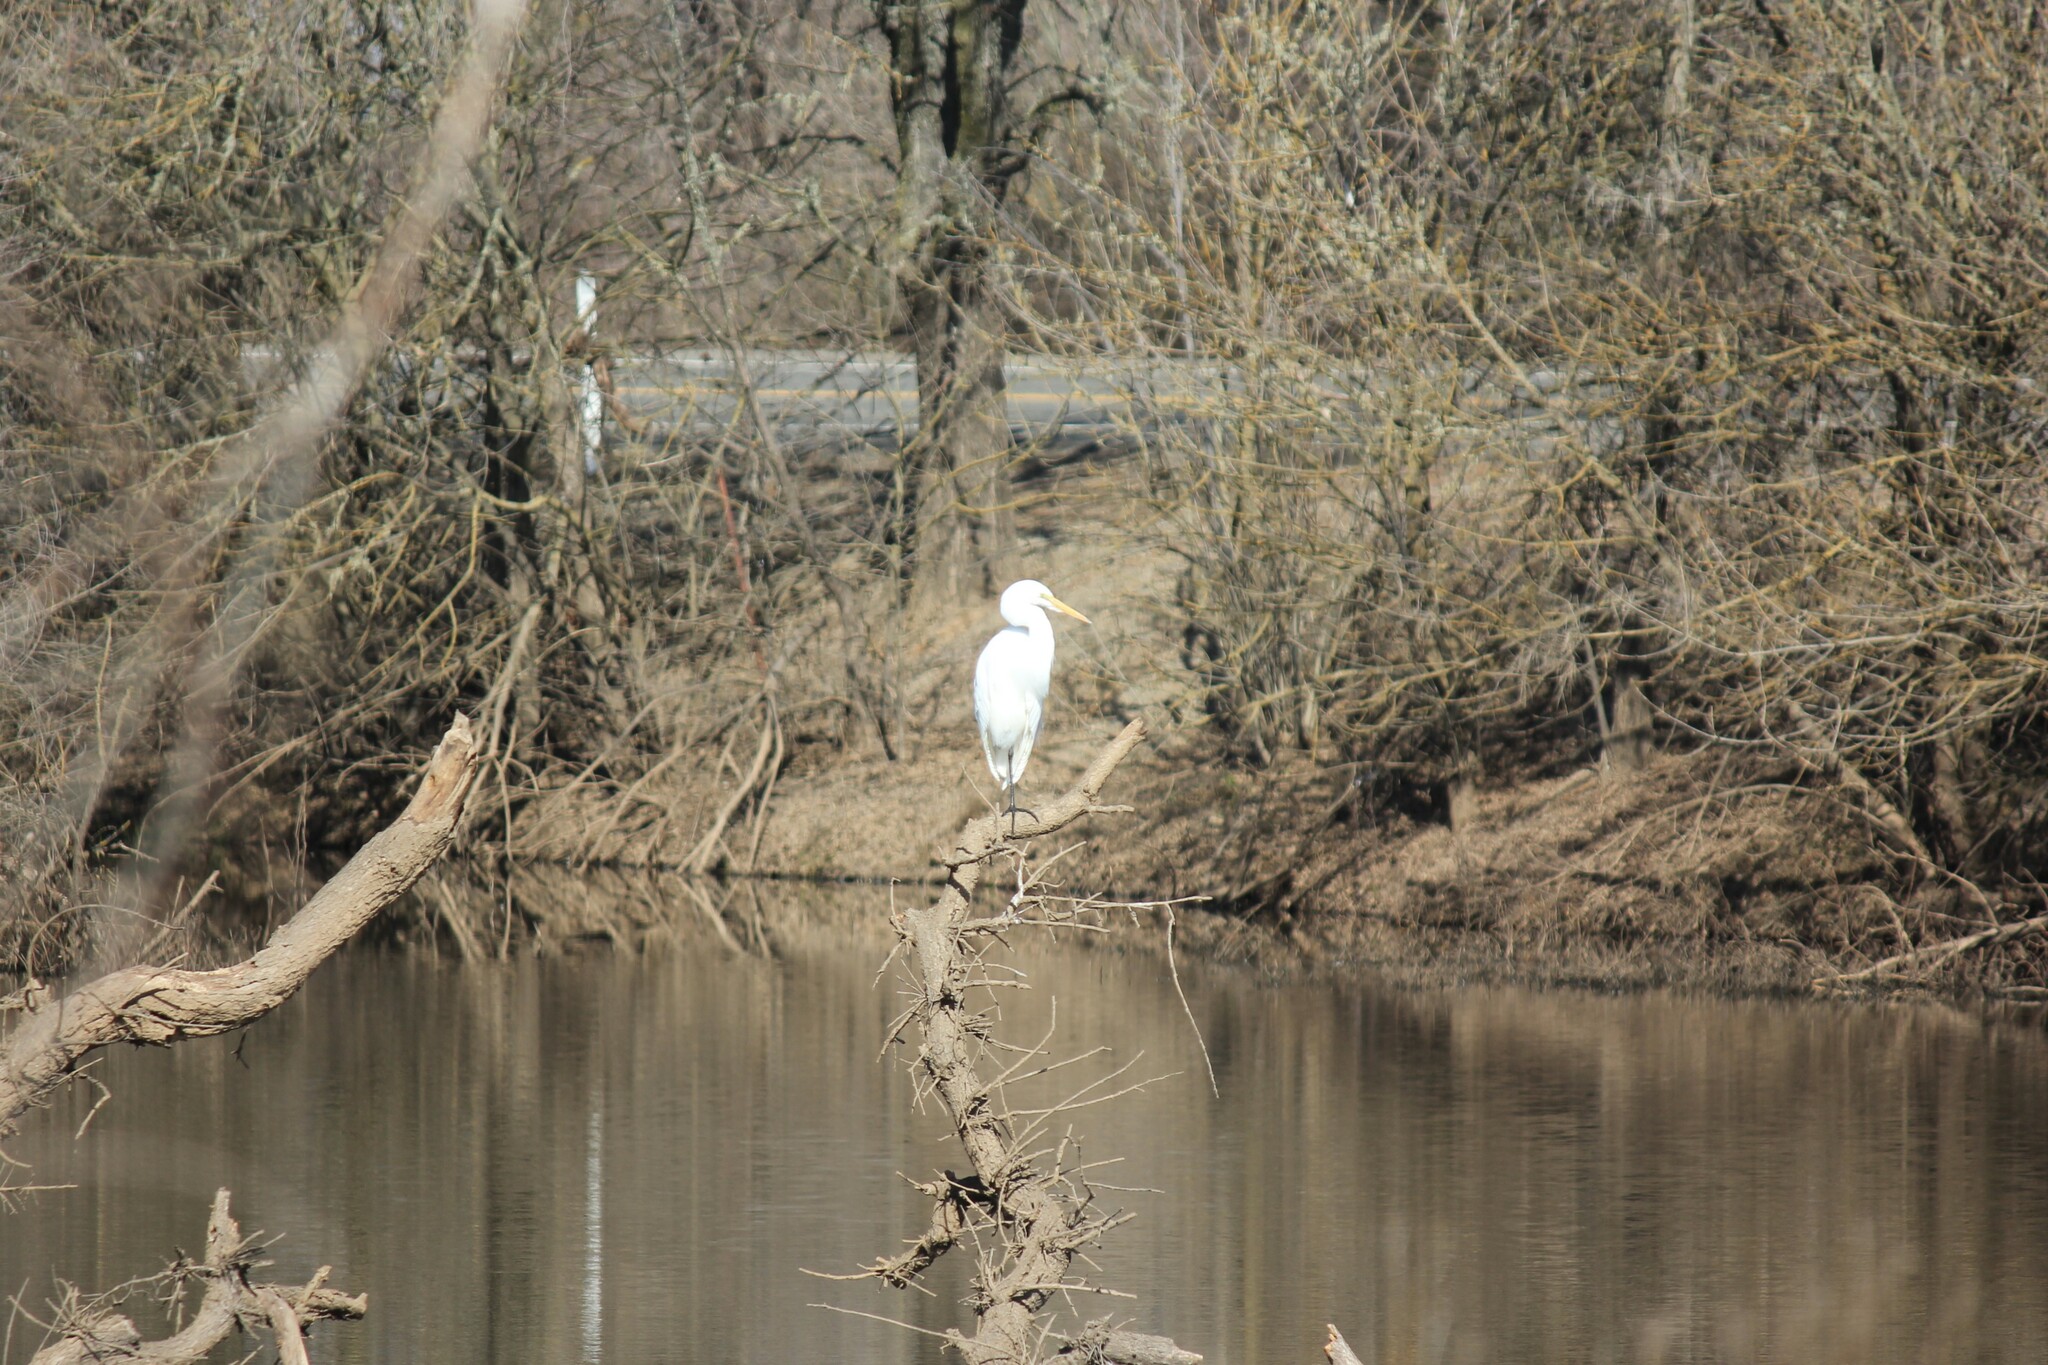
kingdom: Animalia
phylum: Chordata
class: Aves
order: Pelecaniformes
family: Ardeidae
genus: Ardea
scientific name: Ardea alba
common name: Great egret
